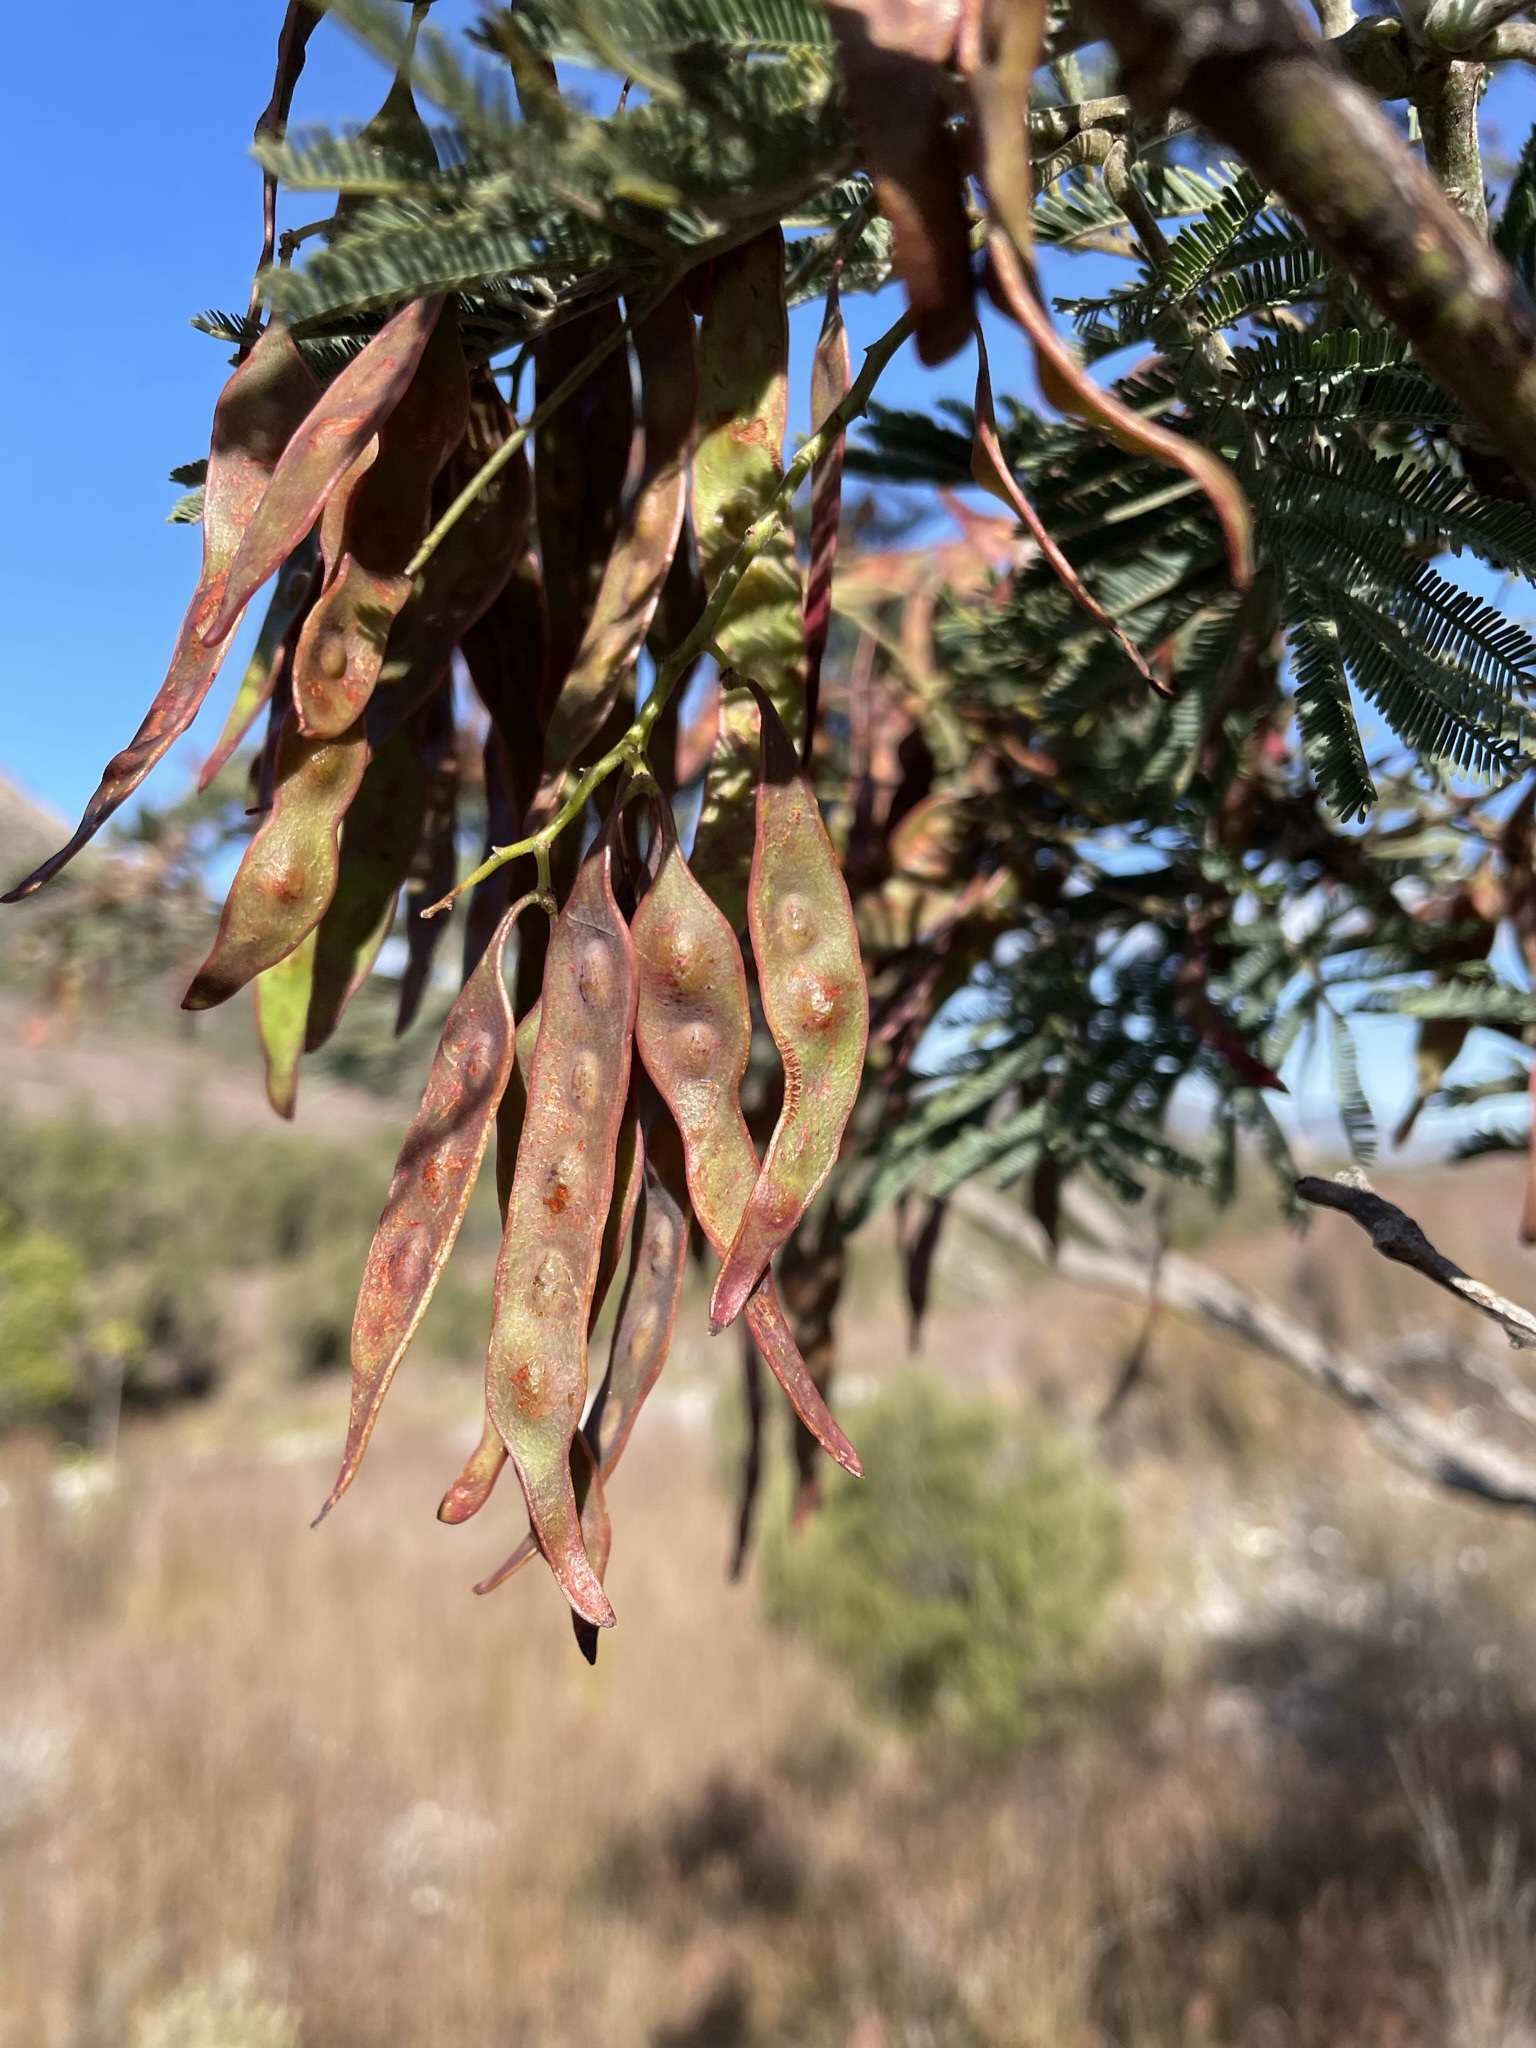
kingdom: Plantae
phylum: Tracheophyta
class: Magnoliopsida
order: Fabales
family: Fabaceae
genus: Acacia
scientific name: Acacia dealbata
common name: Silver wattle
